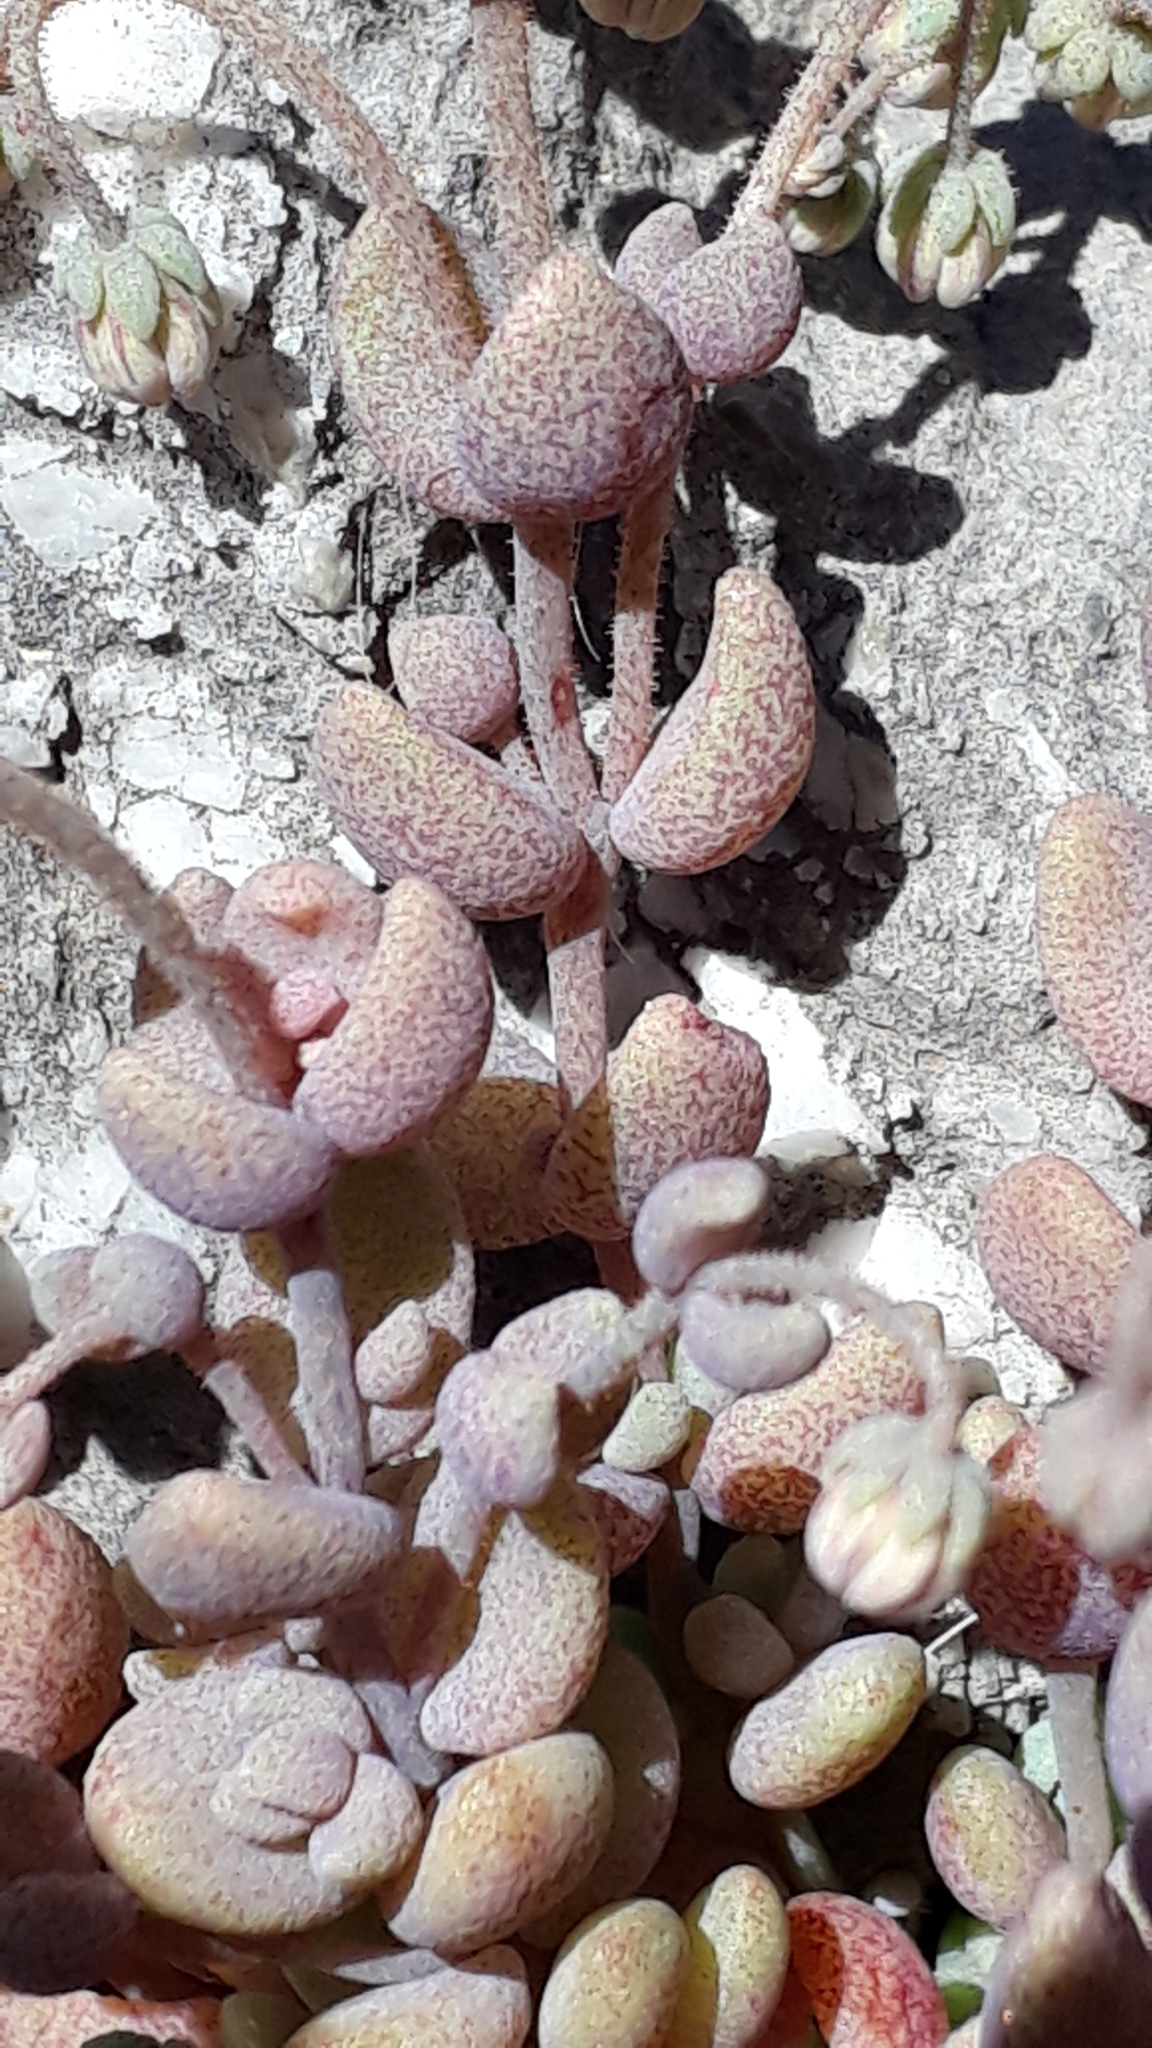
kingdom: Plantae
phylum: Tracheophyta
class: Magnoliopsida
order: Saxifragales
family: Crassulaceae
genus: Sedum
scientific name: Sedum dasyphyllum
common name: Thick-leaf stonecrop
